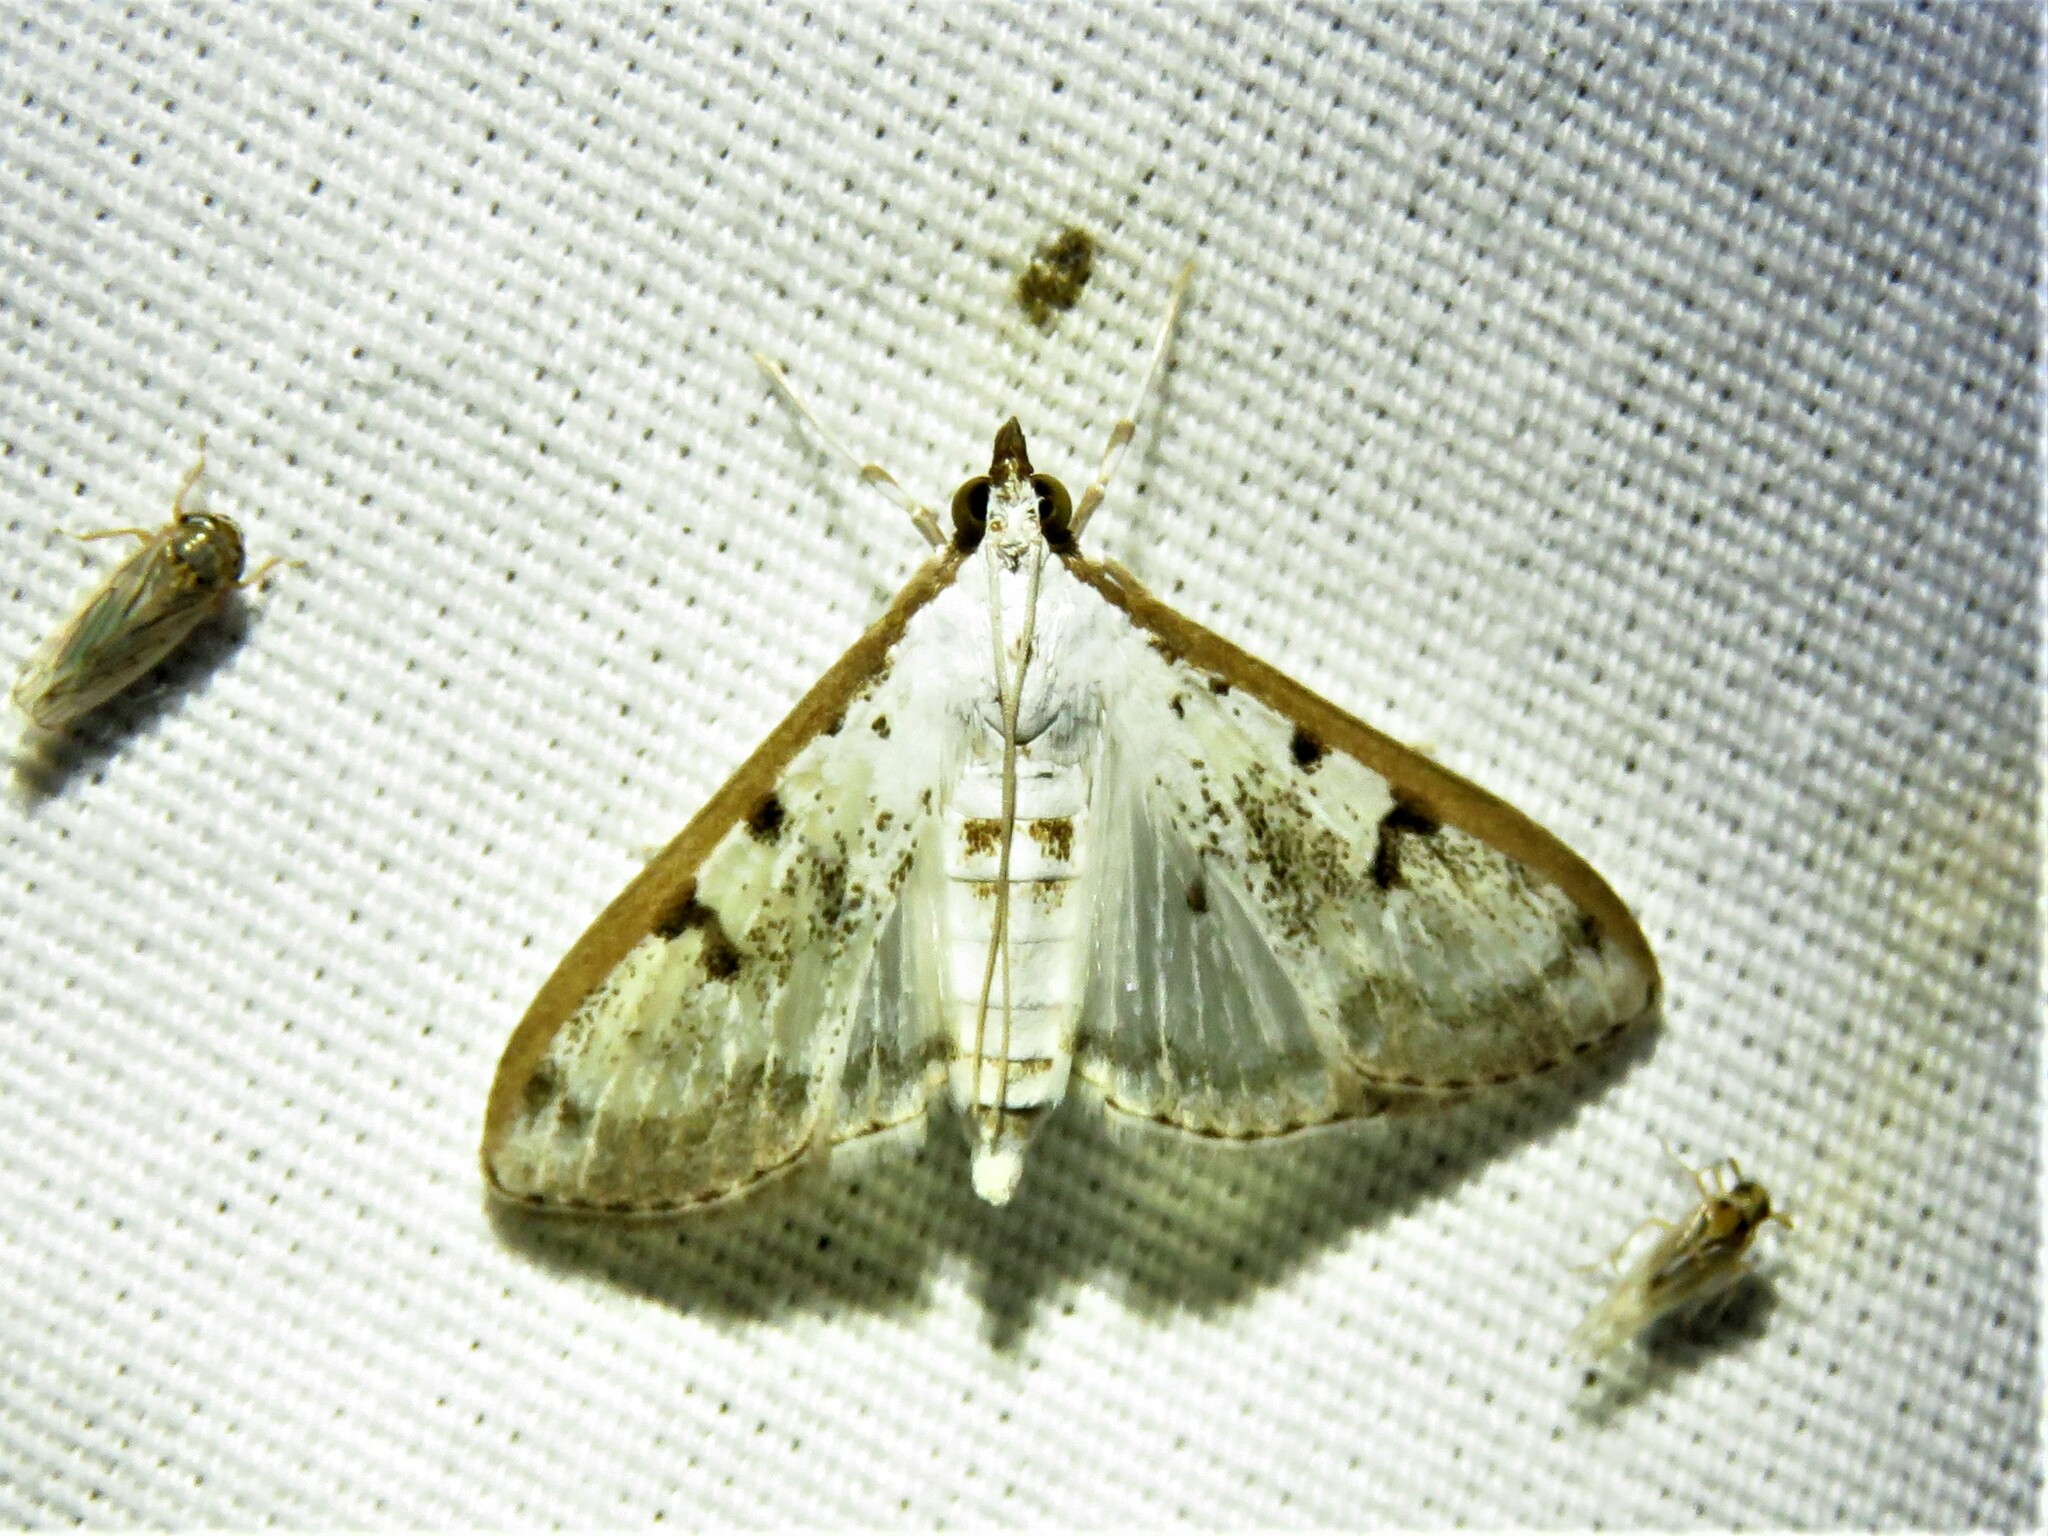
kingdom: Animalia
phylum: Arthropoda
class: Insecta
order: Lepidoptera
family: Crambidae
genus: Palpita
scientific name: Palpita gracilalis
